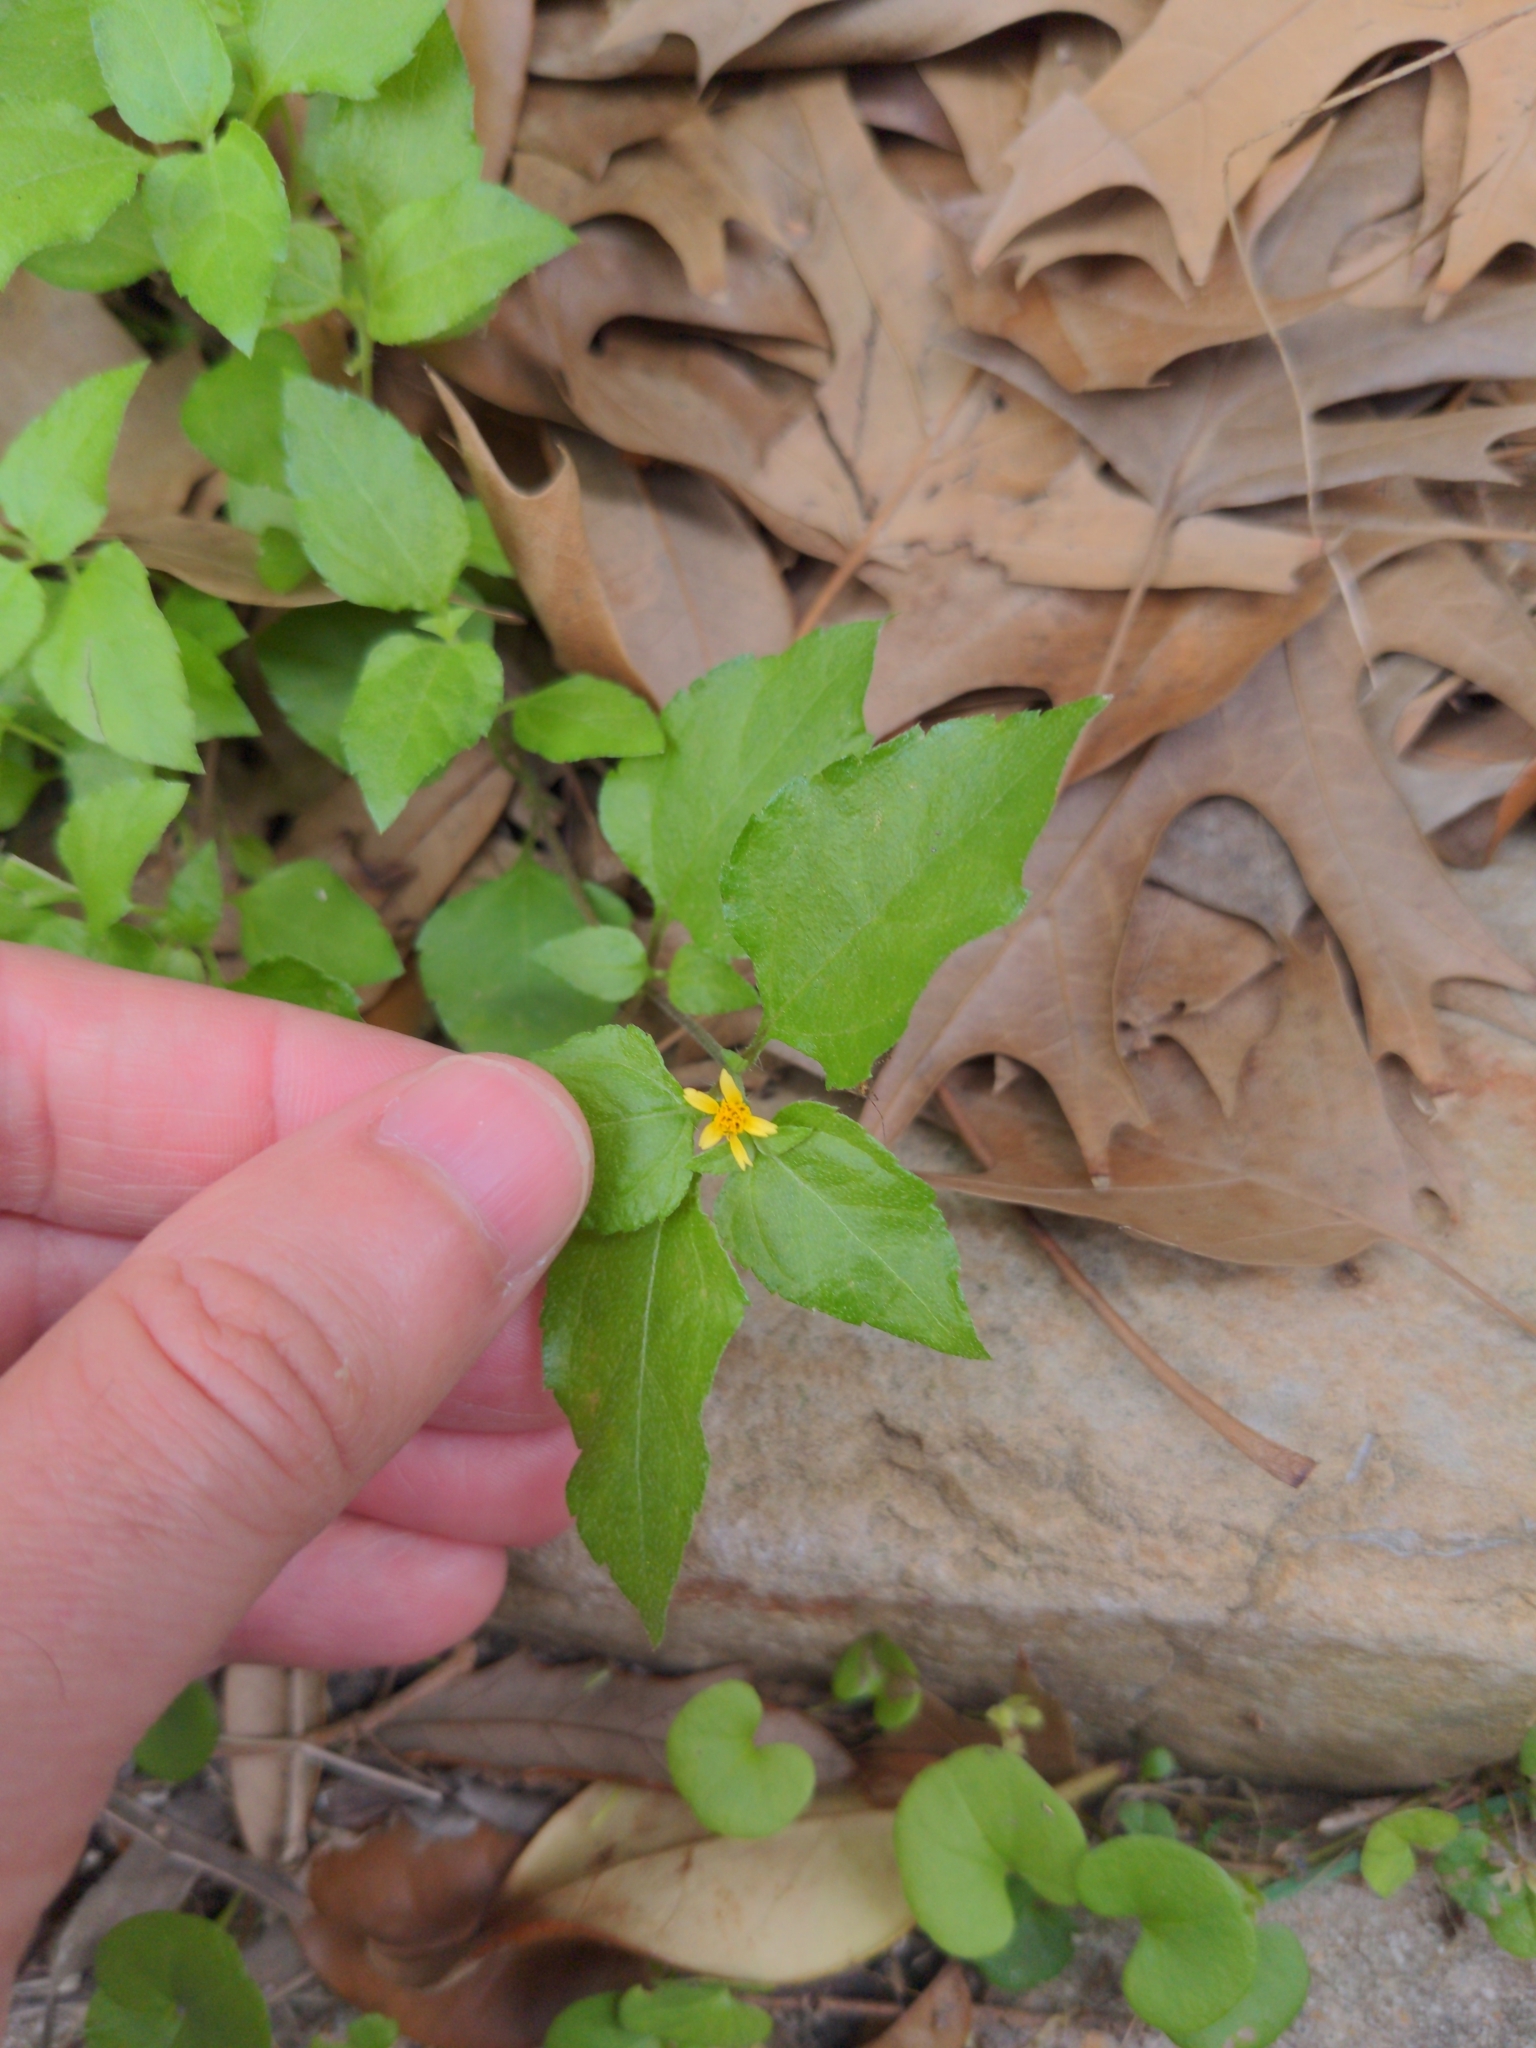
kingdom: Plantae
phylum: Tracheophyta
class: Magnoliopsida
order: Asterales
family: Asteraceae
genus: Calyptocarpus
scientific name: Calyptocarpus vialis
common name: Straggler daisy
